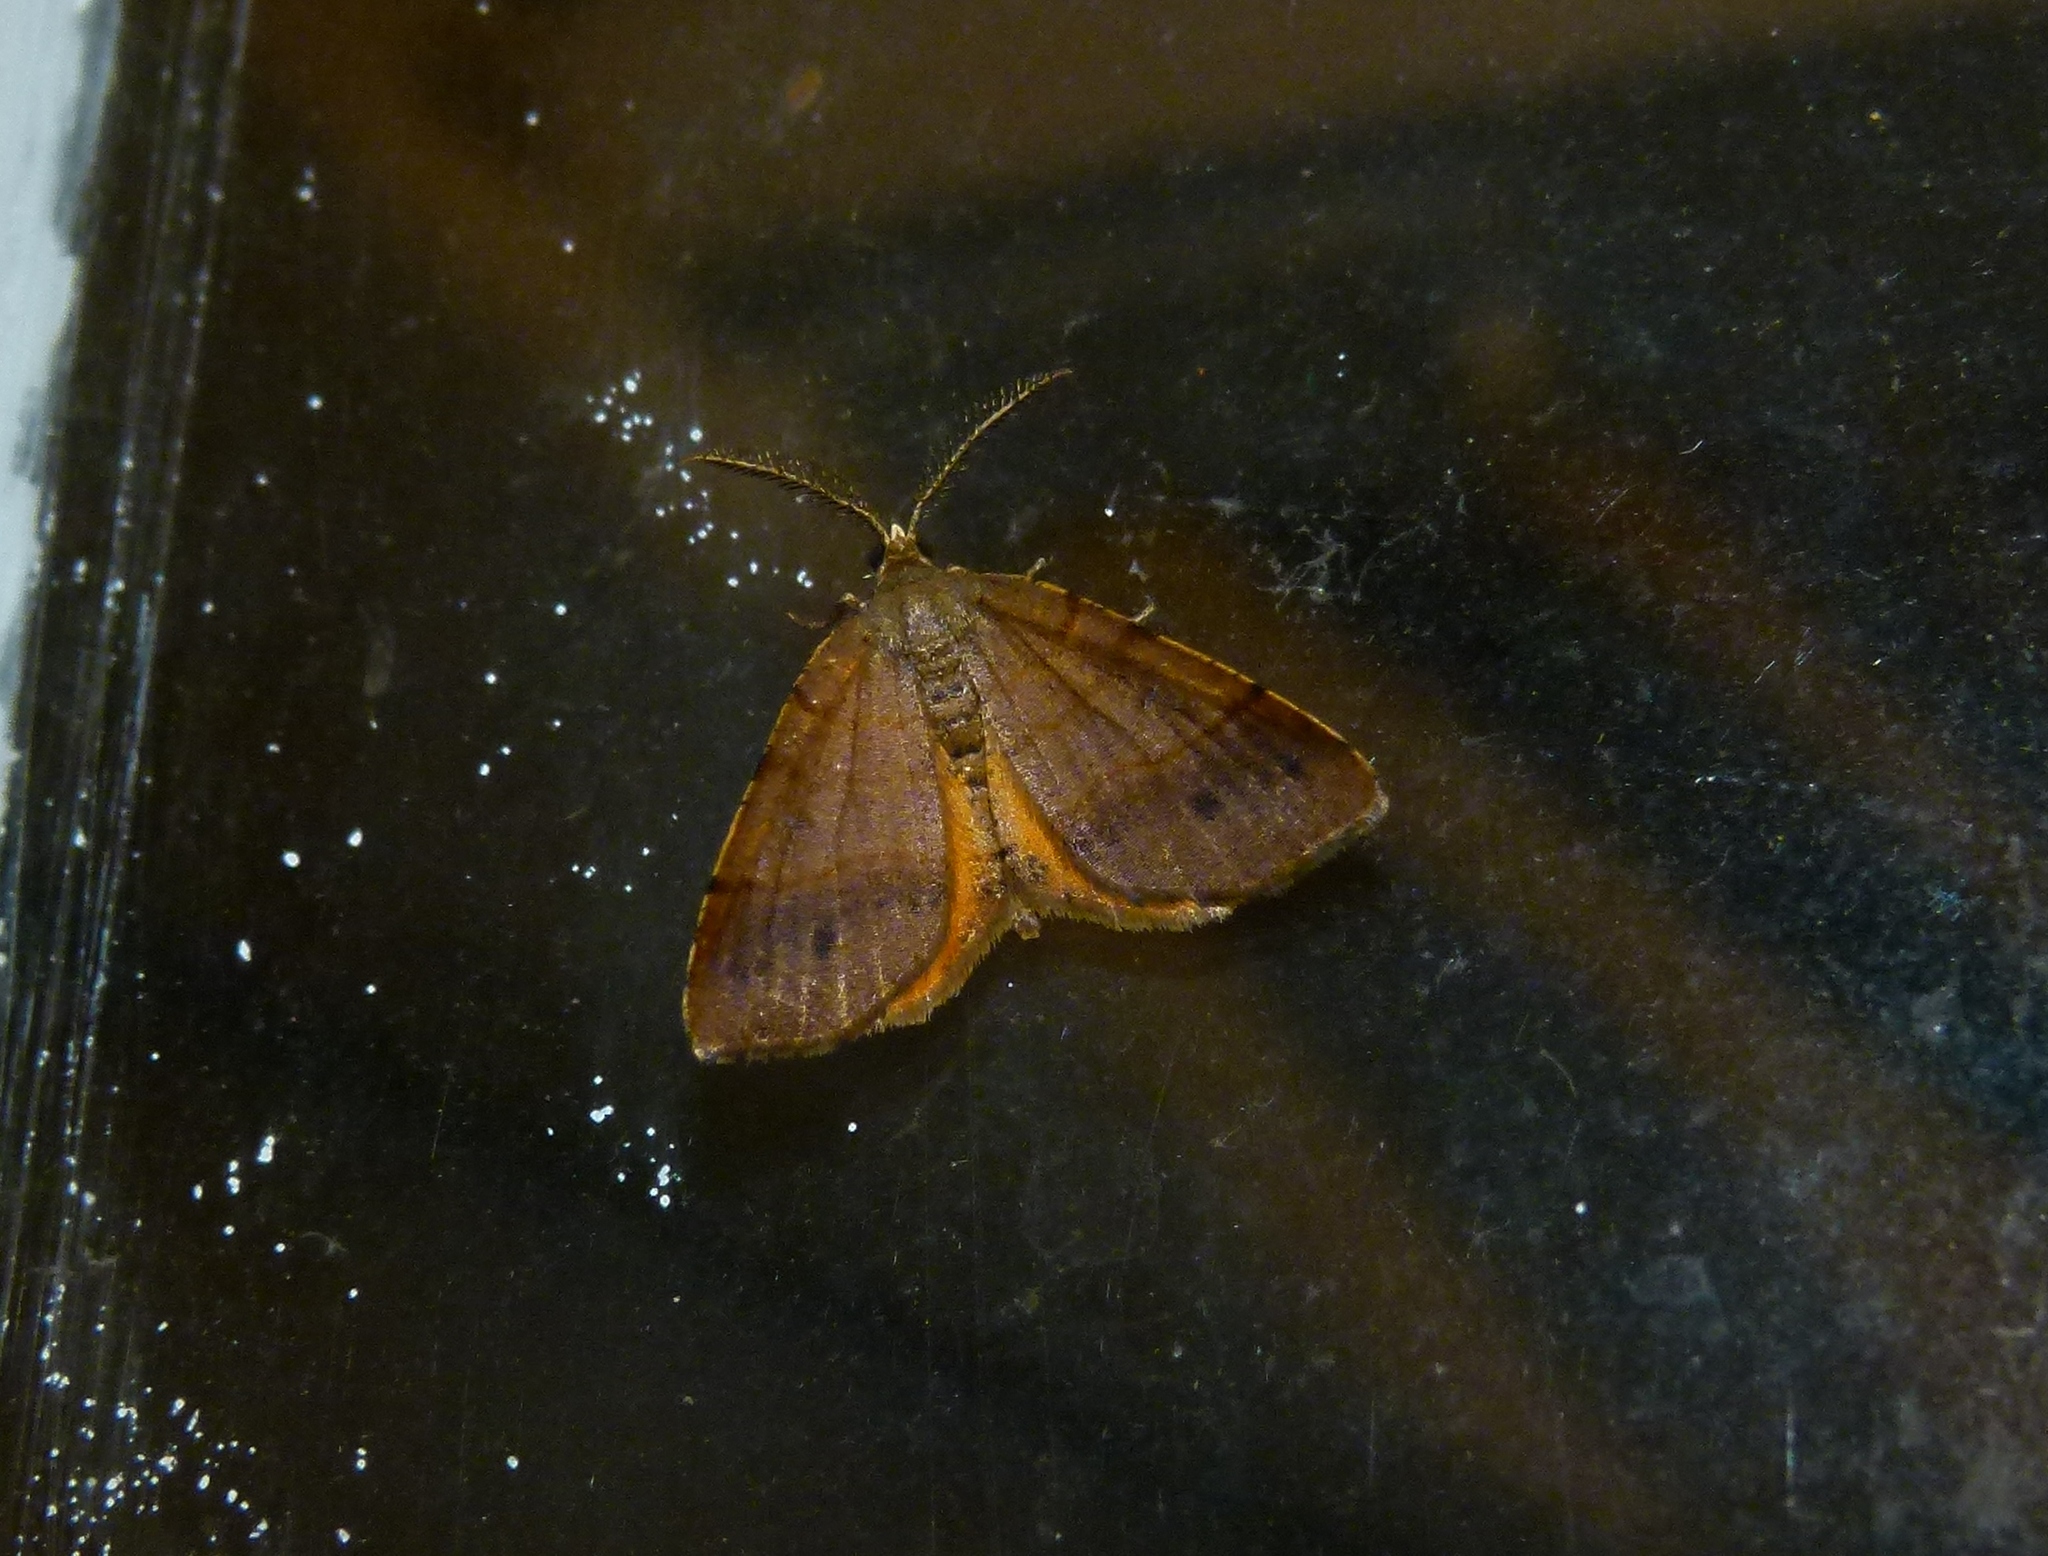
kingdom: Animalia
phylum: Arthropoda
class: Insecta
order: Lepidoptera
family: Geometridae
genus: Mellilla
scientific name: Mellilla xanthometata
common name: Orange wing moth
